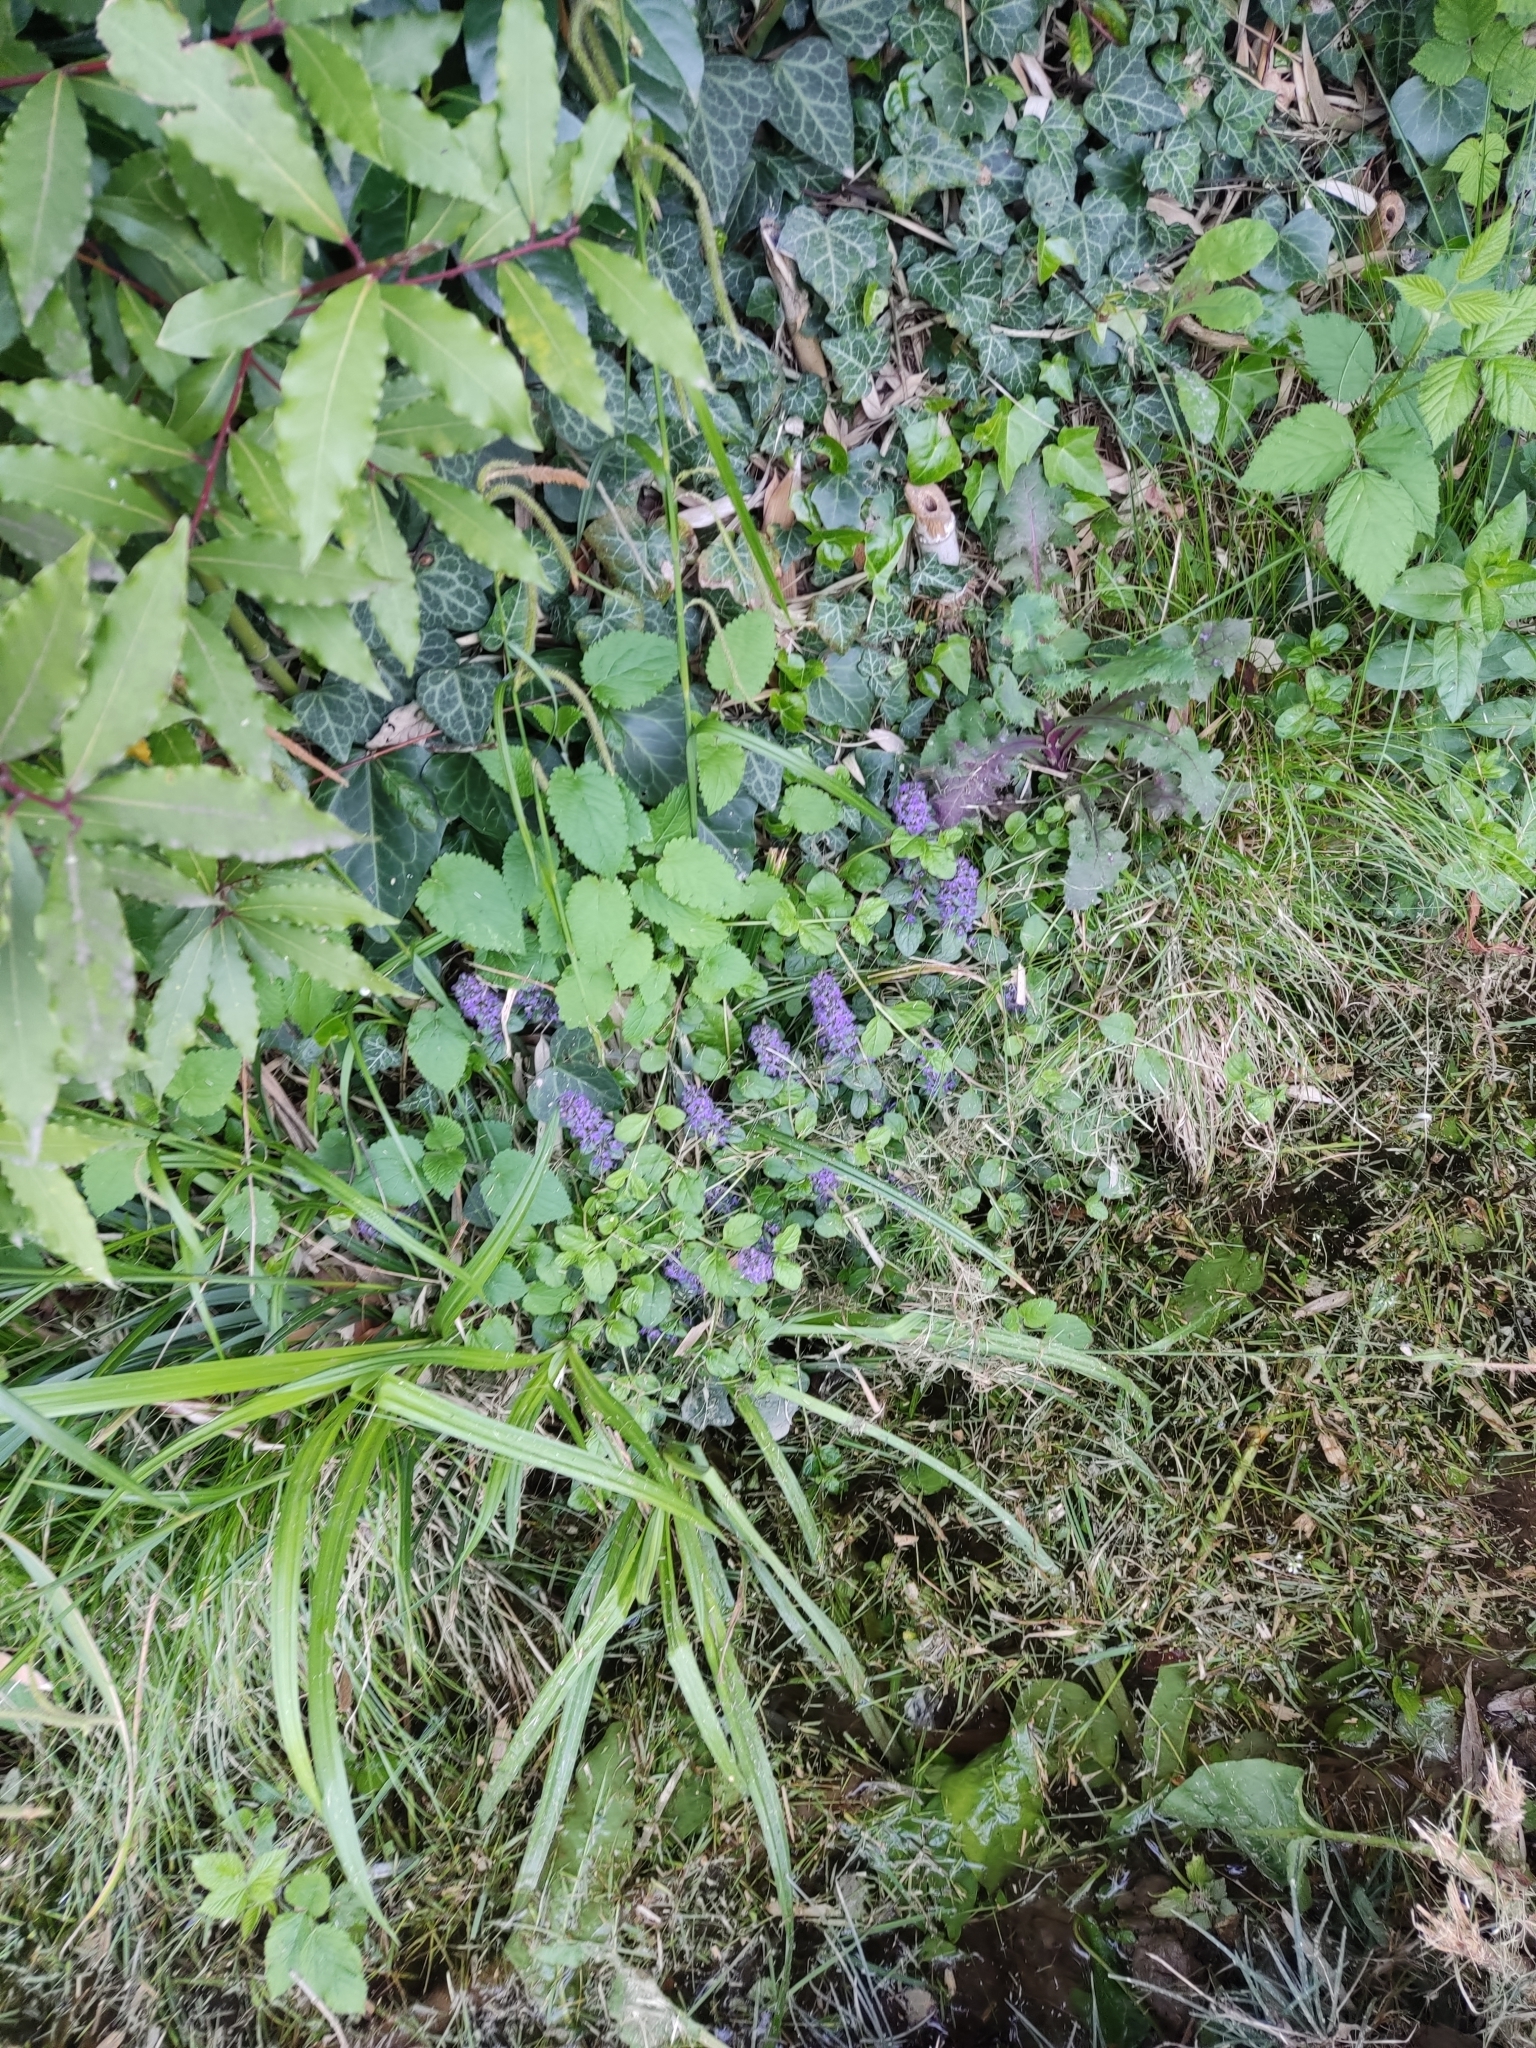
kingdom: Plantae
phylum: Tracheophyta
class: Magnoliopsida
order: Lamiales
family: Lamiaceae
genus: Ajuga
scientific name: Ajuga reptans
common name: Bugle
